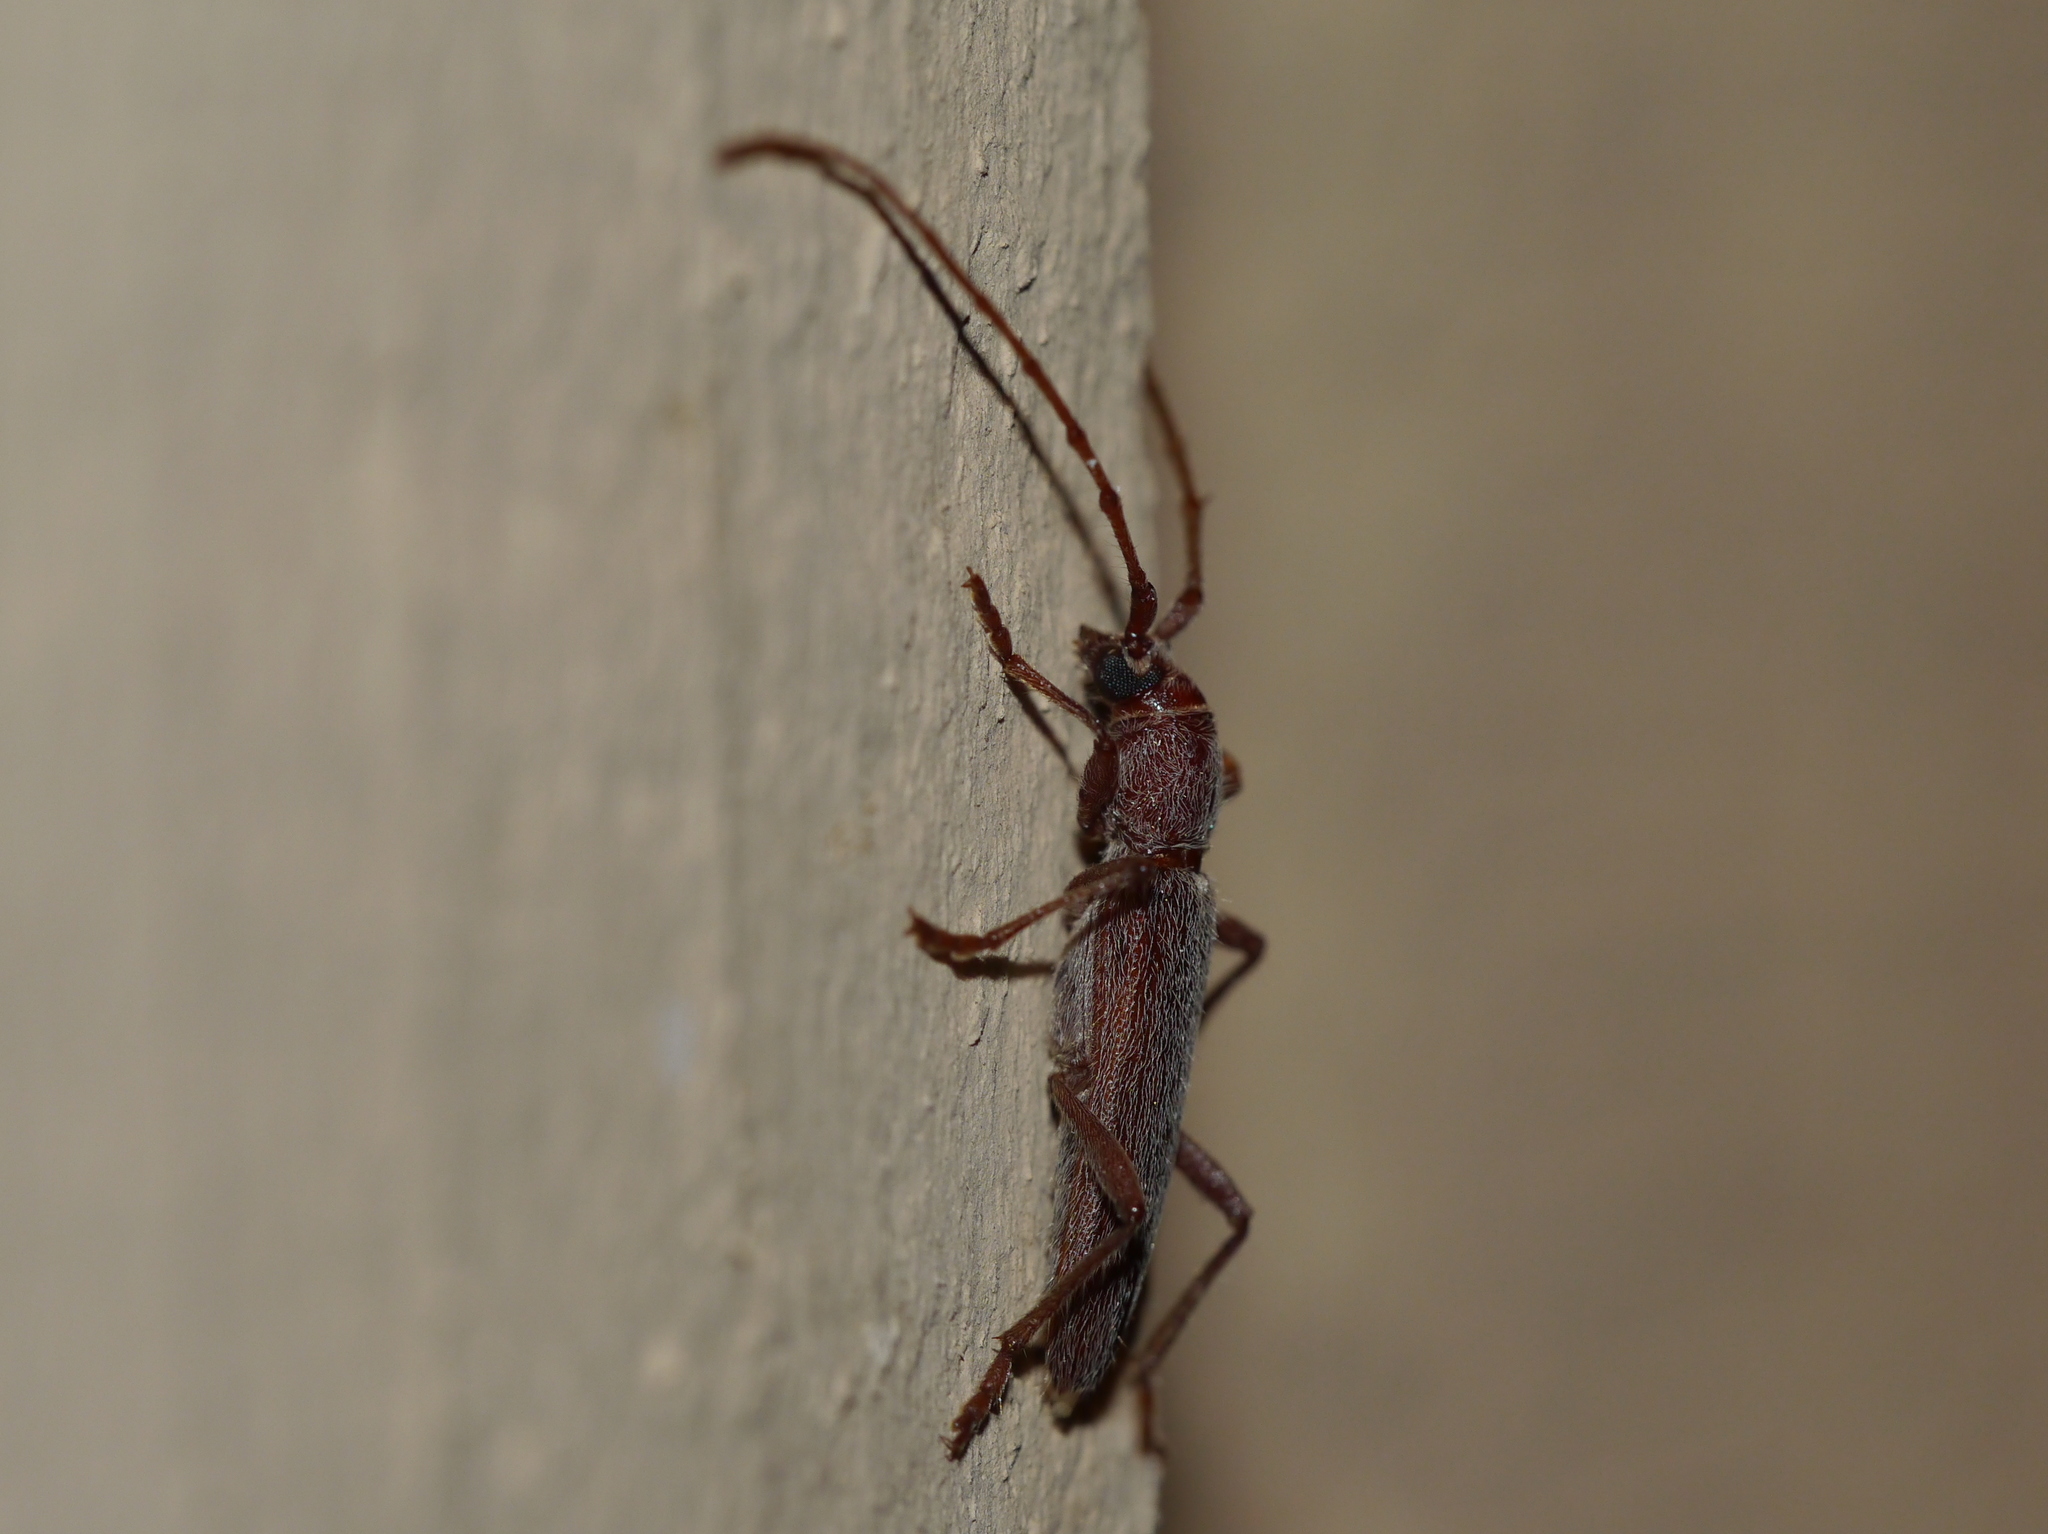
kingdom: Animalia
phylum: Arthropoda
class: Insecta
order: Coleoptera
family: Cerambycidae
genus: Aneflomorpha
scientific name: Aneflomorpha lineare
